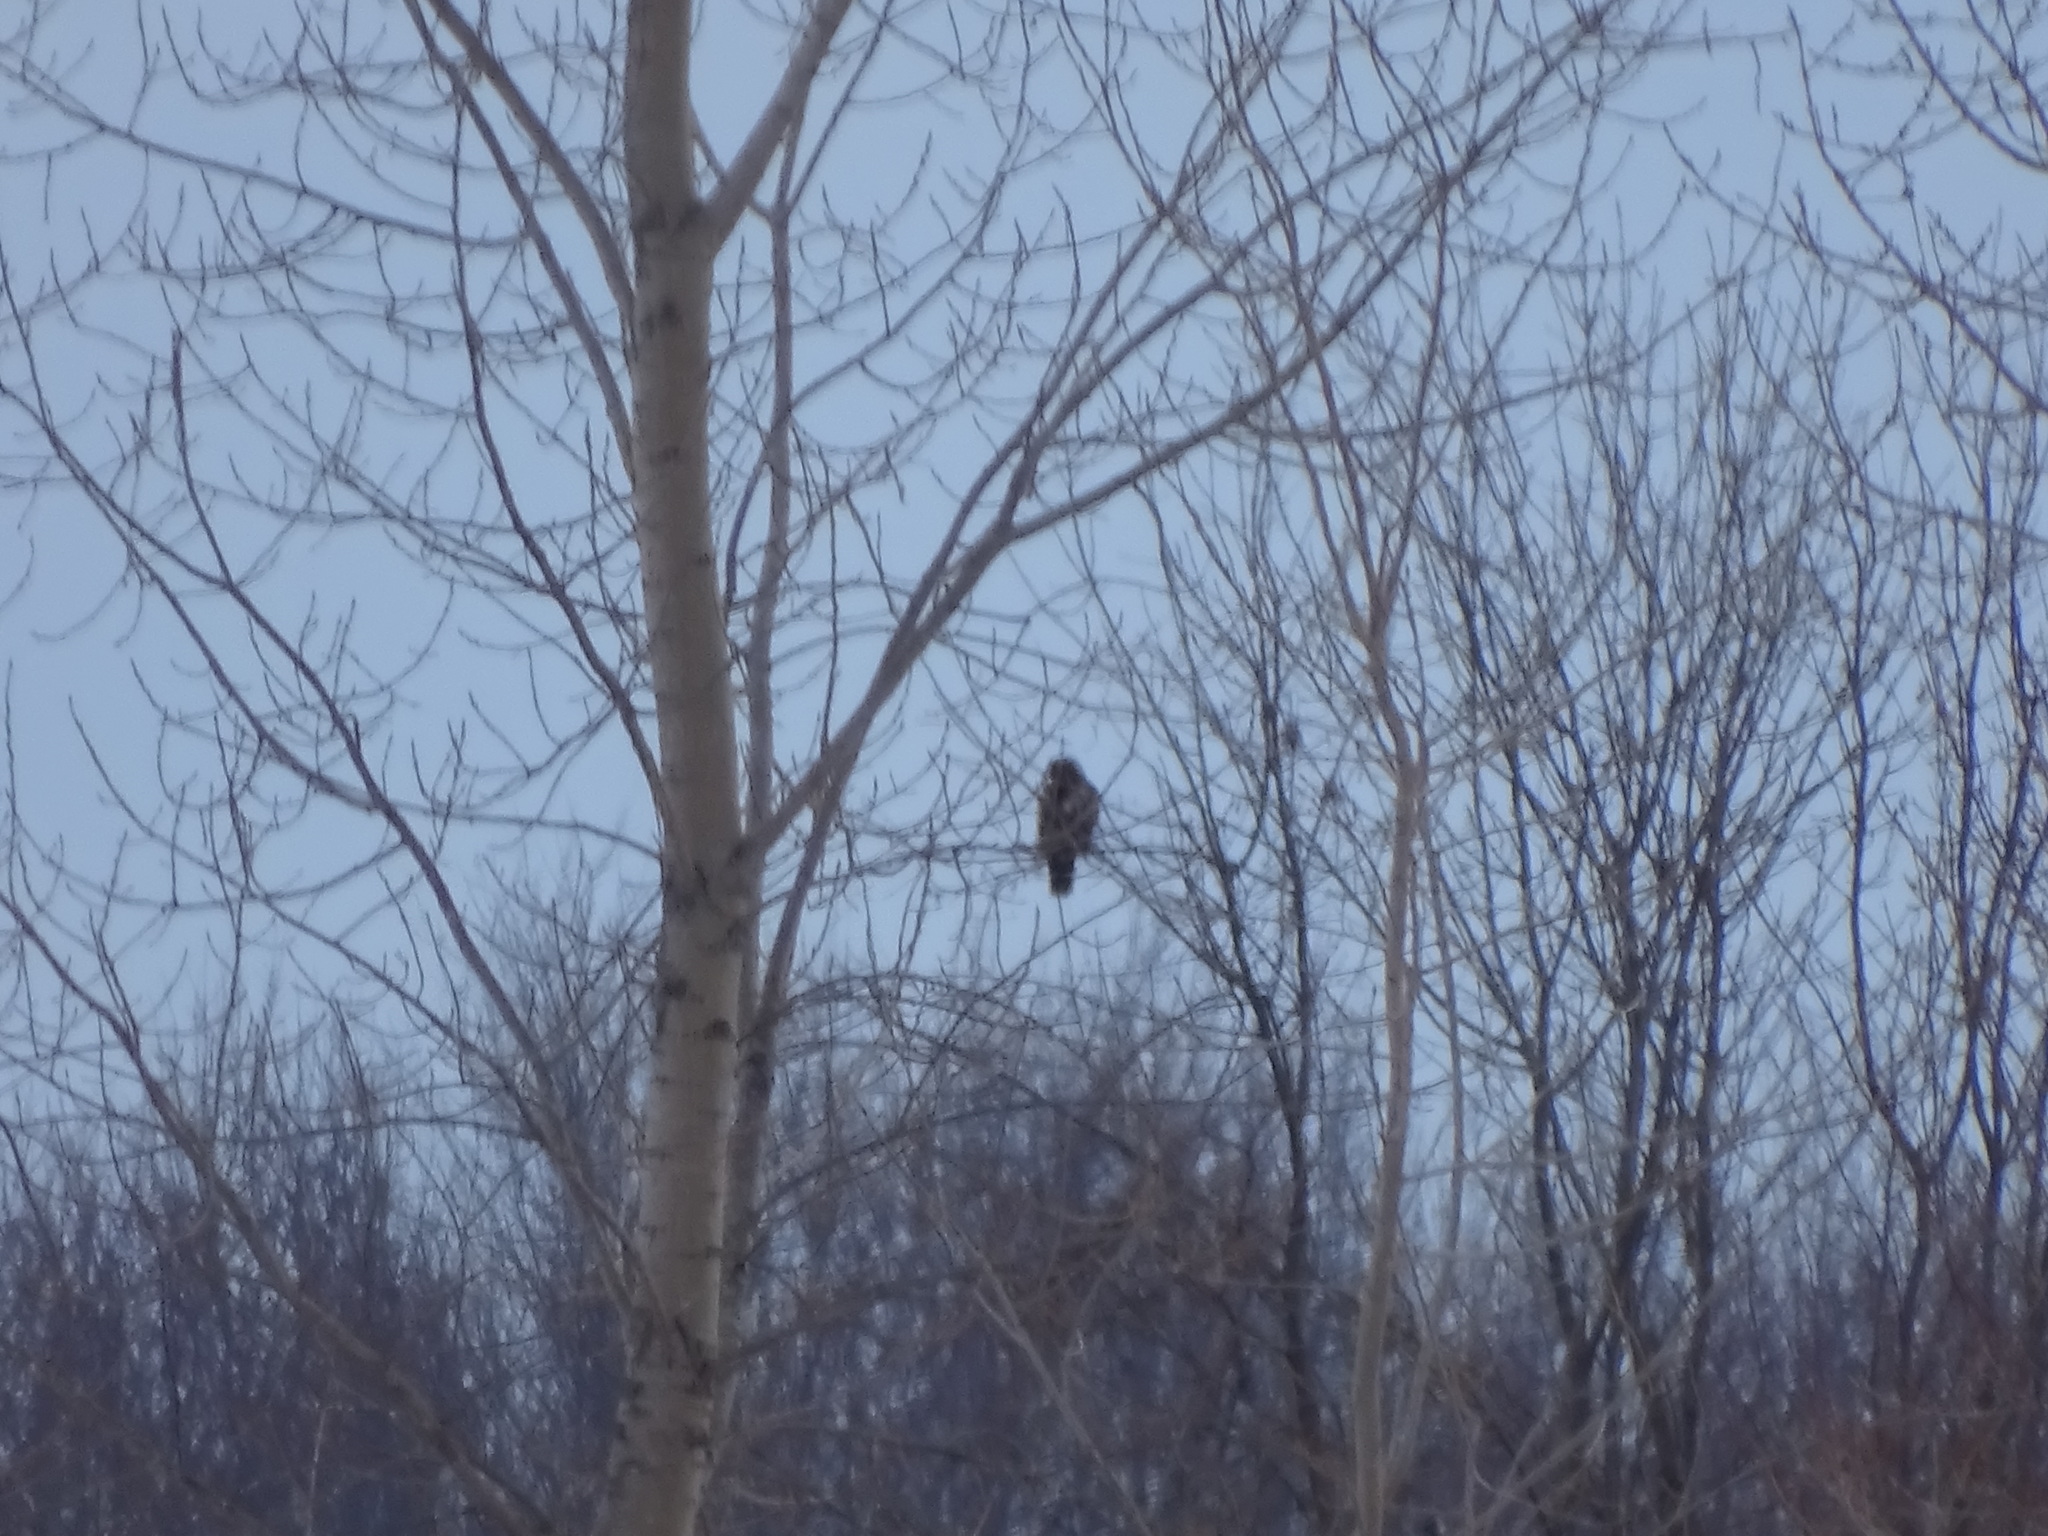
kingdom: Animalia
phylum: Chordata
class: Aves
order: Accipitriformes
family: Accipitridae
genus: Buteo
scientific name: Buteo jamaicensis
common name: Red-tailed hawk
